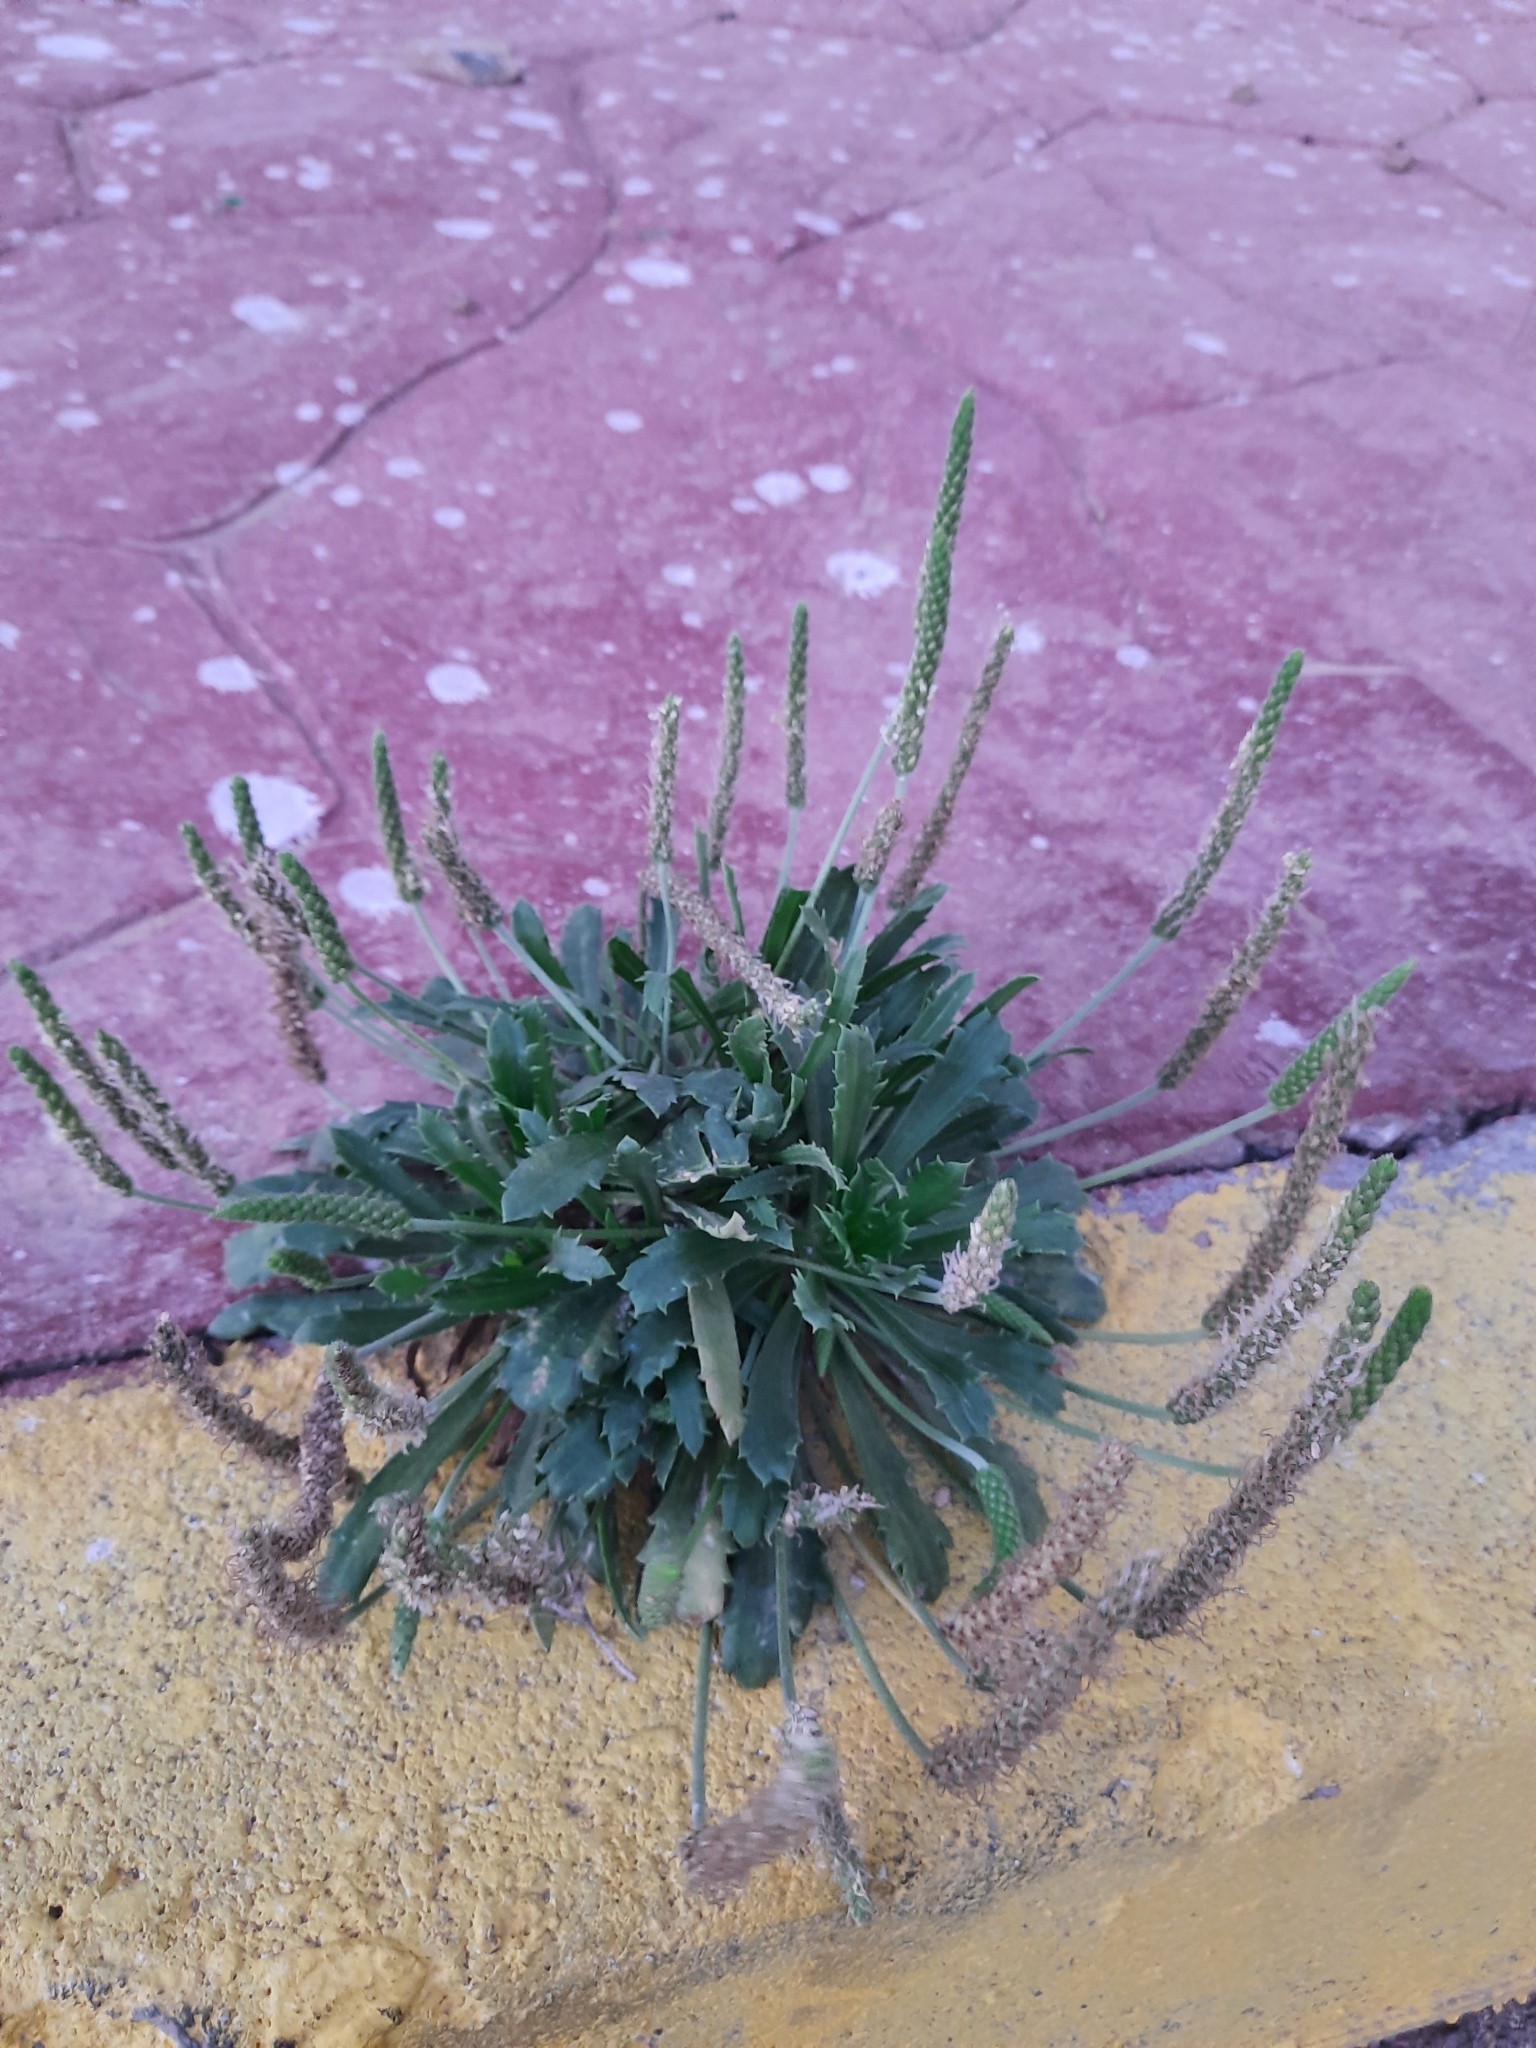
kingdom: Plantae
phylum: Tracheophyta
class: Magnoliopsida
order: Lamiales
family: Plantaginaceae
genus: Plantago
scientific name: Plantago macrorhiza
